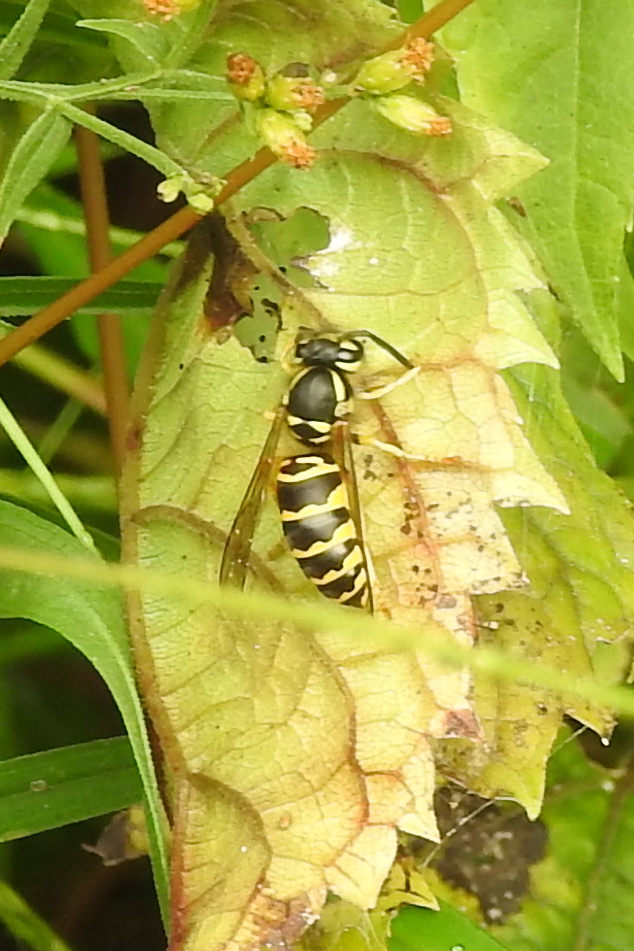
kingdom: Animalia
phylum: Arthropoda
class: Insecta
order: Hymenoptera
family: Vespidae
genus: Vespula
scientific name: Vespula maculifrons
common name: Eastern yellowjacket
